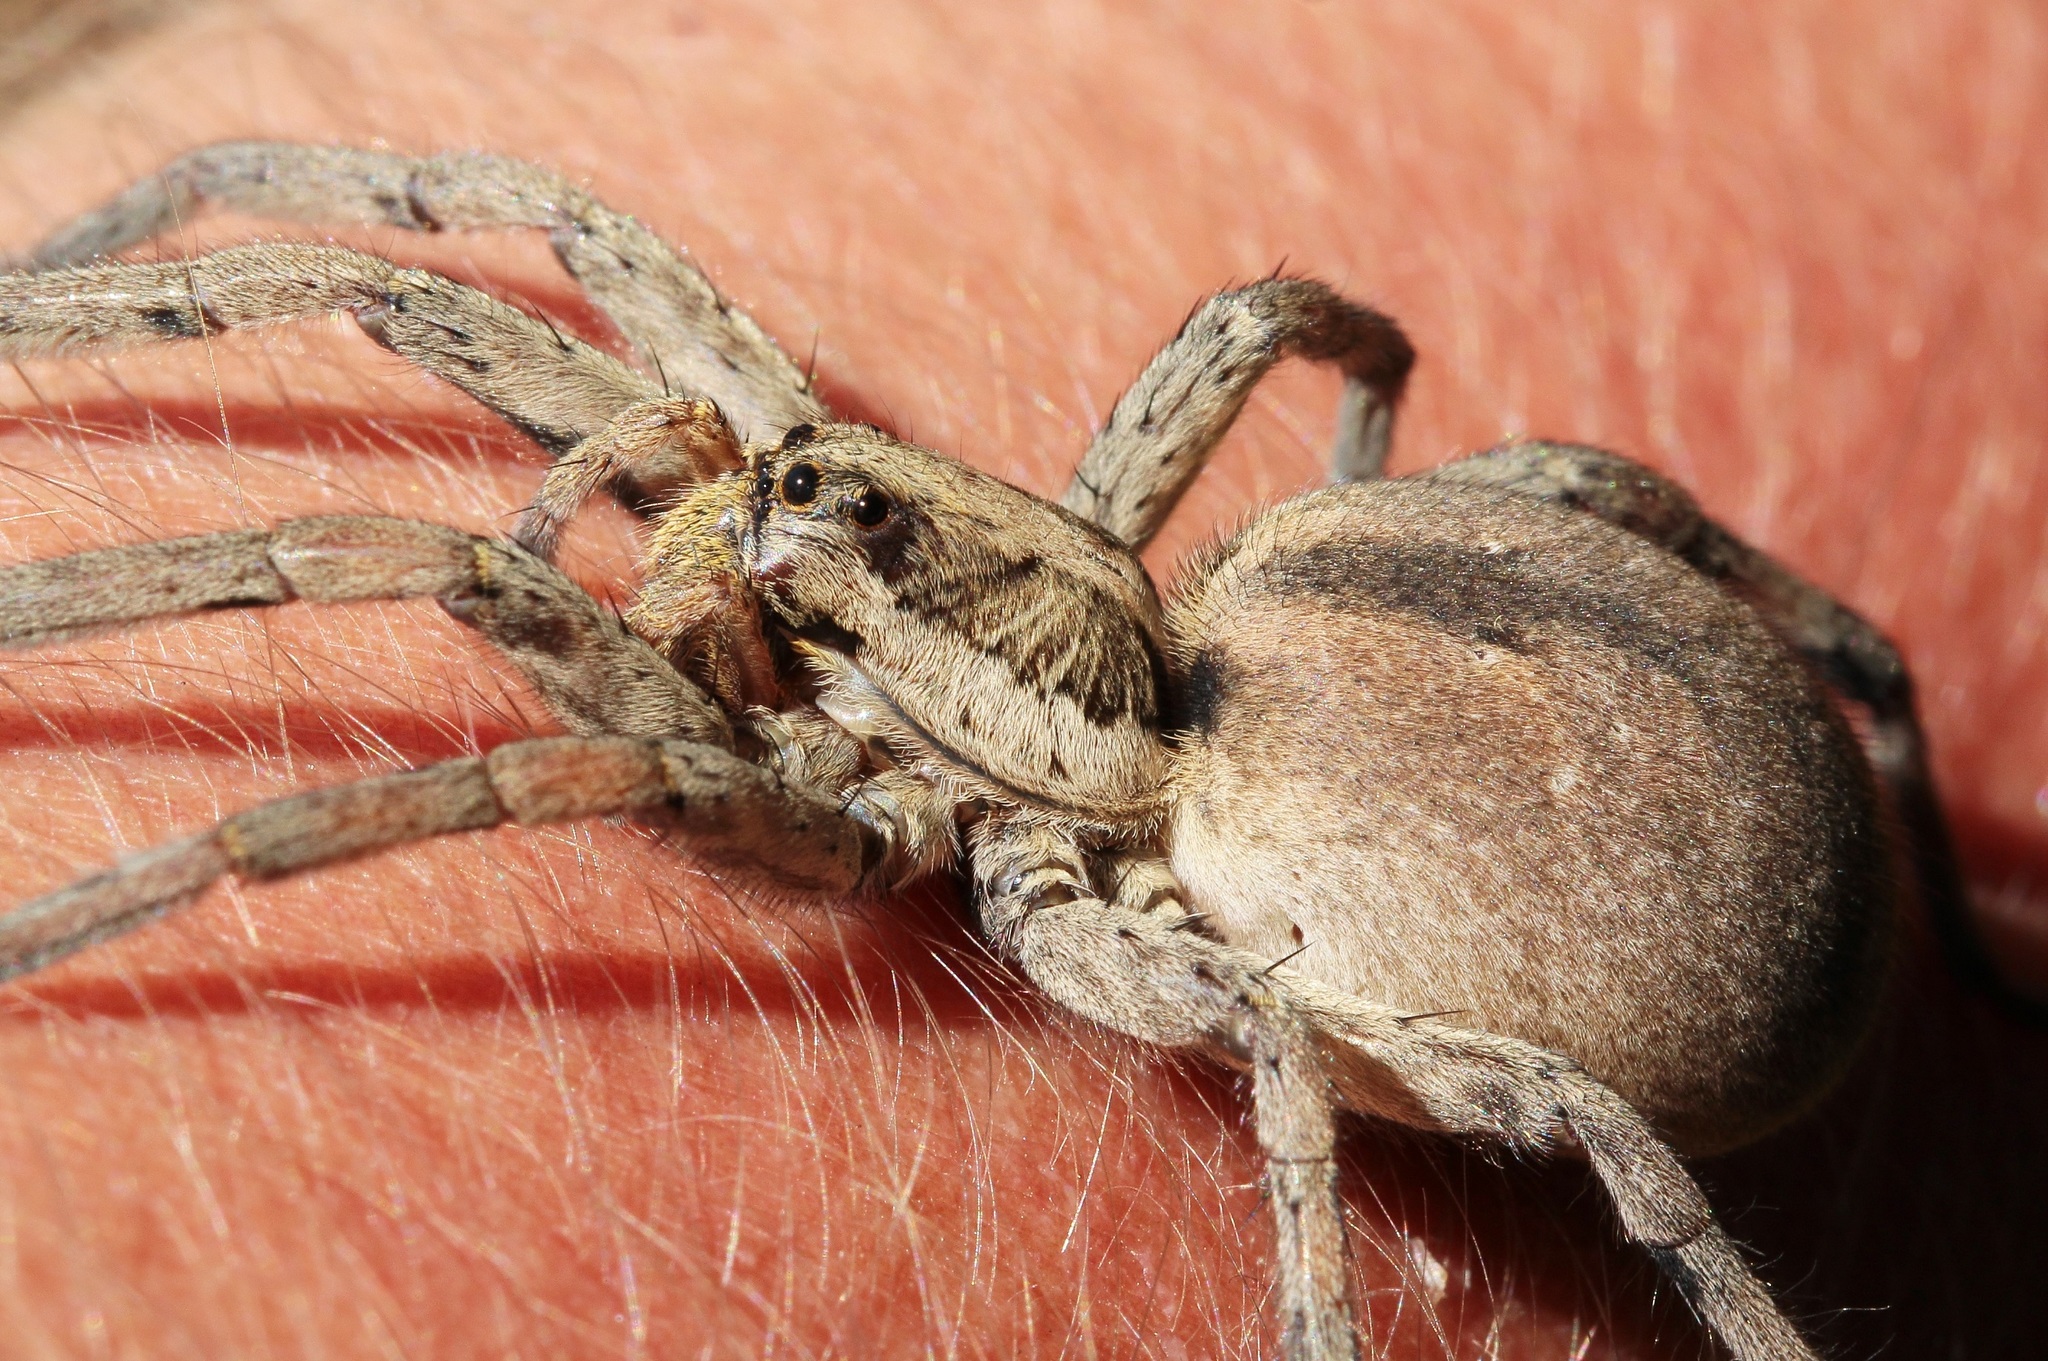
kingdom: Animalia
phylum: Arthropoda
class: Arachnida
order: Araneae
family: Lycosidae
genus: Hogna
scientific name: Hogna radiata
